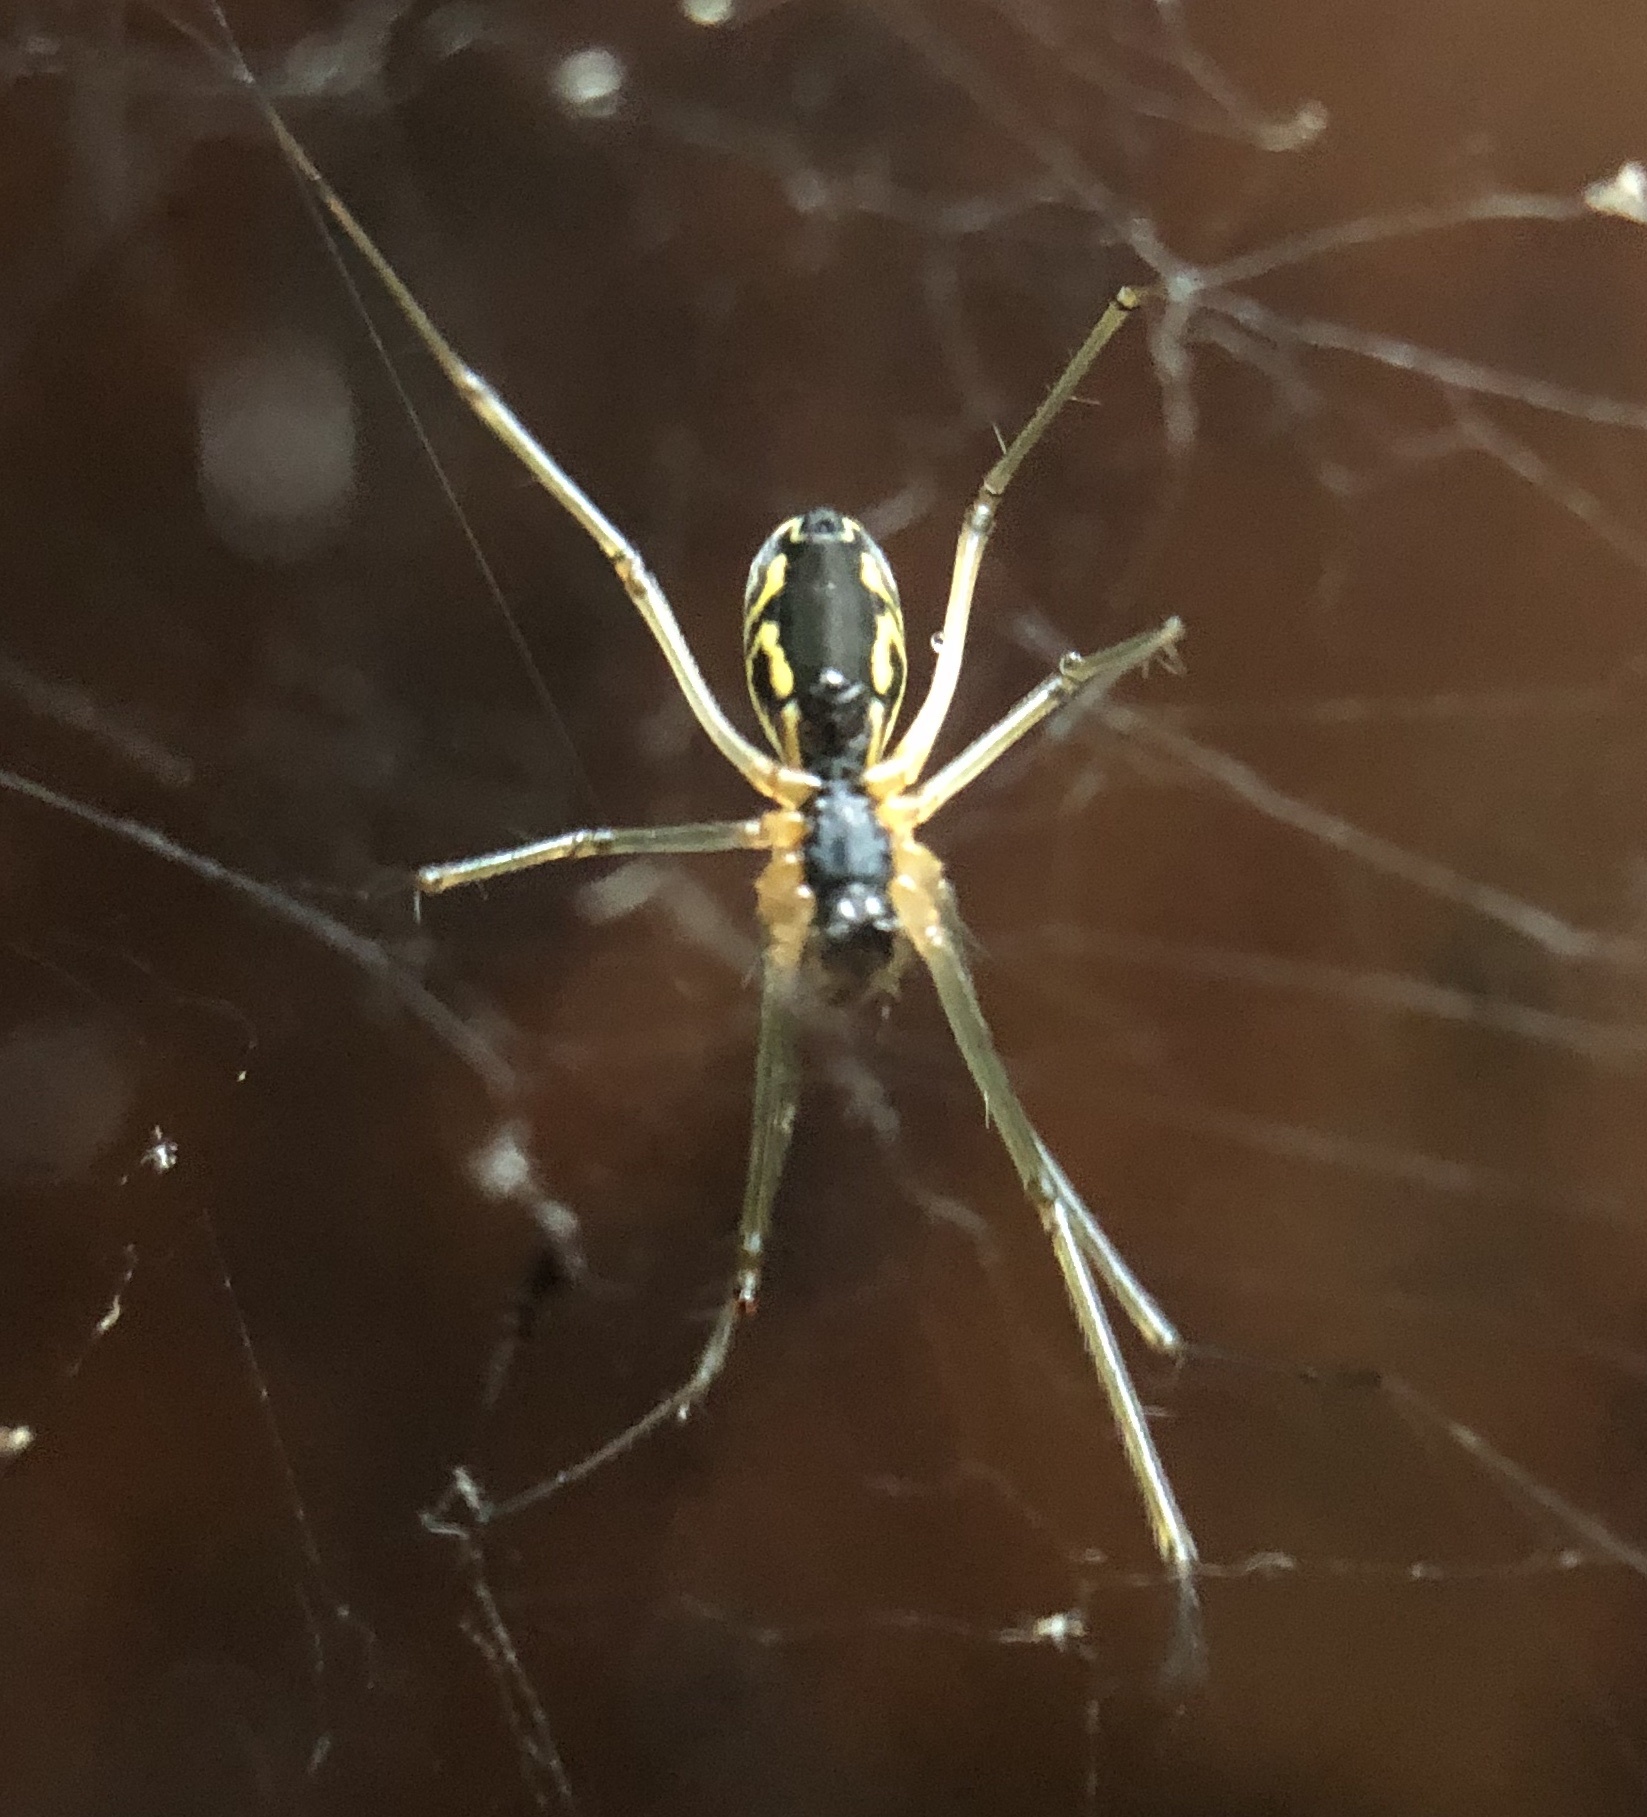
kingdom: Animalia
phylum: Arthropoda
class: Arachnida
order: Araneae
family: Linyphiidae
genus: Neriene
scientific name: Neriene radiata
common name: Filmy dome spider
